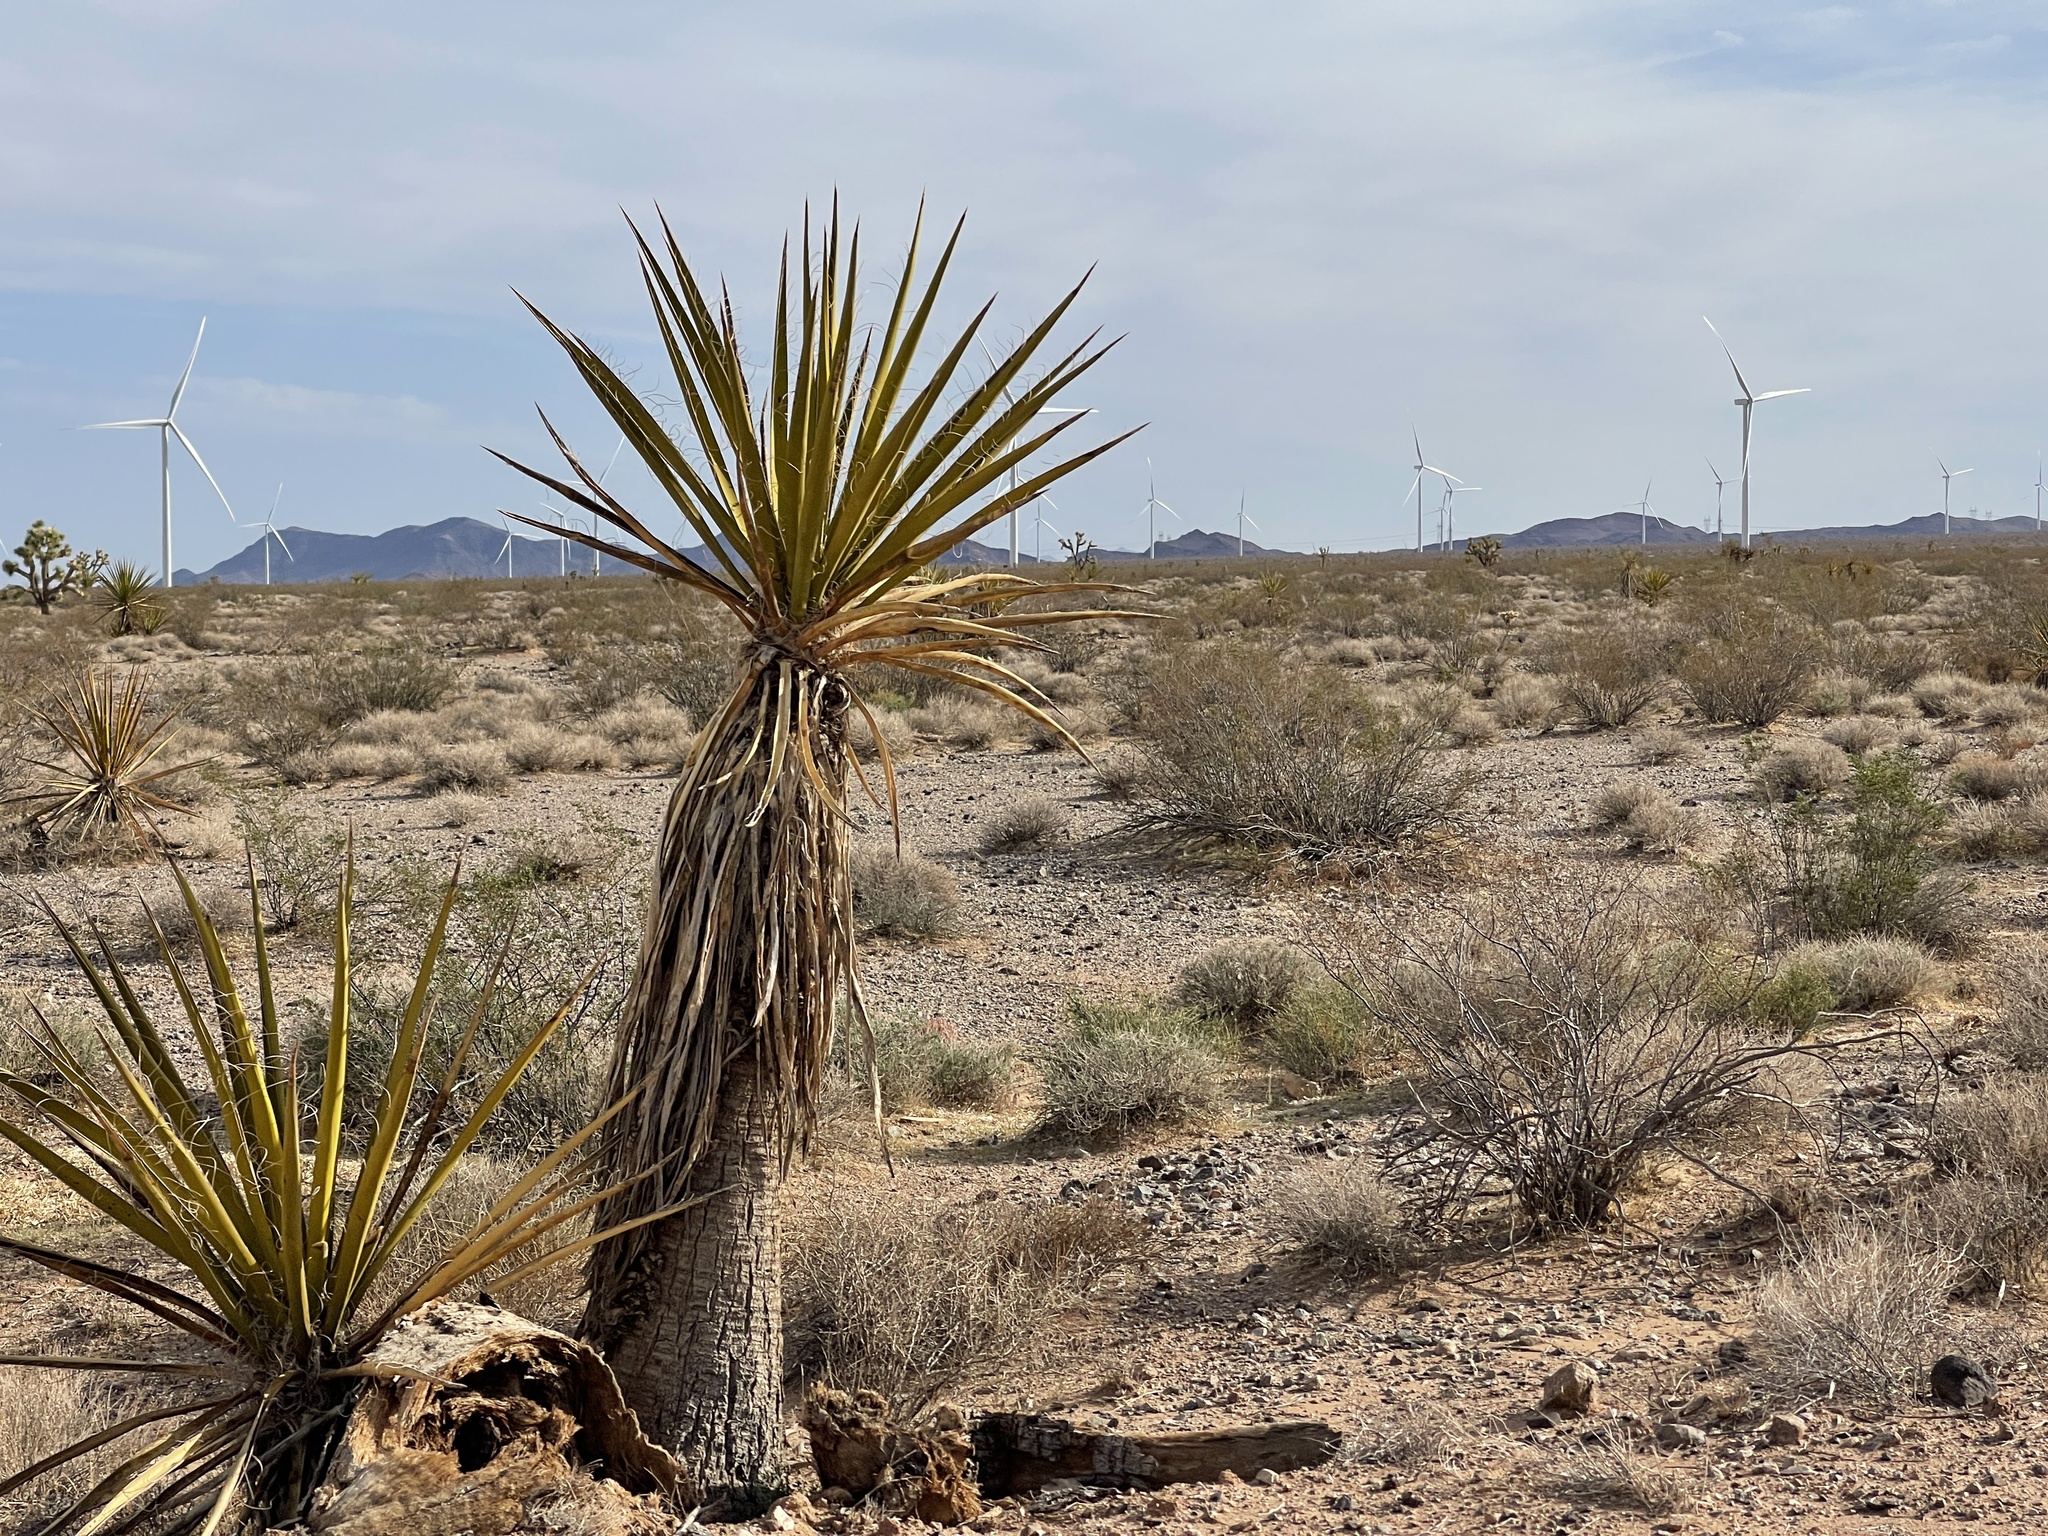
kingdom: Plantae
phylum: Tracheophyta
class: Liliopsida
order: Asparagales
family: Asparagaceae
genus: Yucca
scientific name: Yucca schidigera
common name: Mojave yucca
